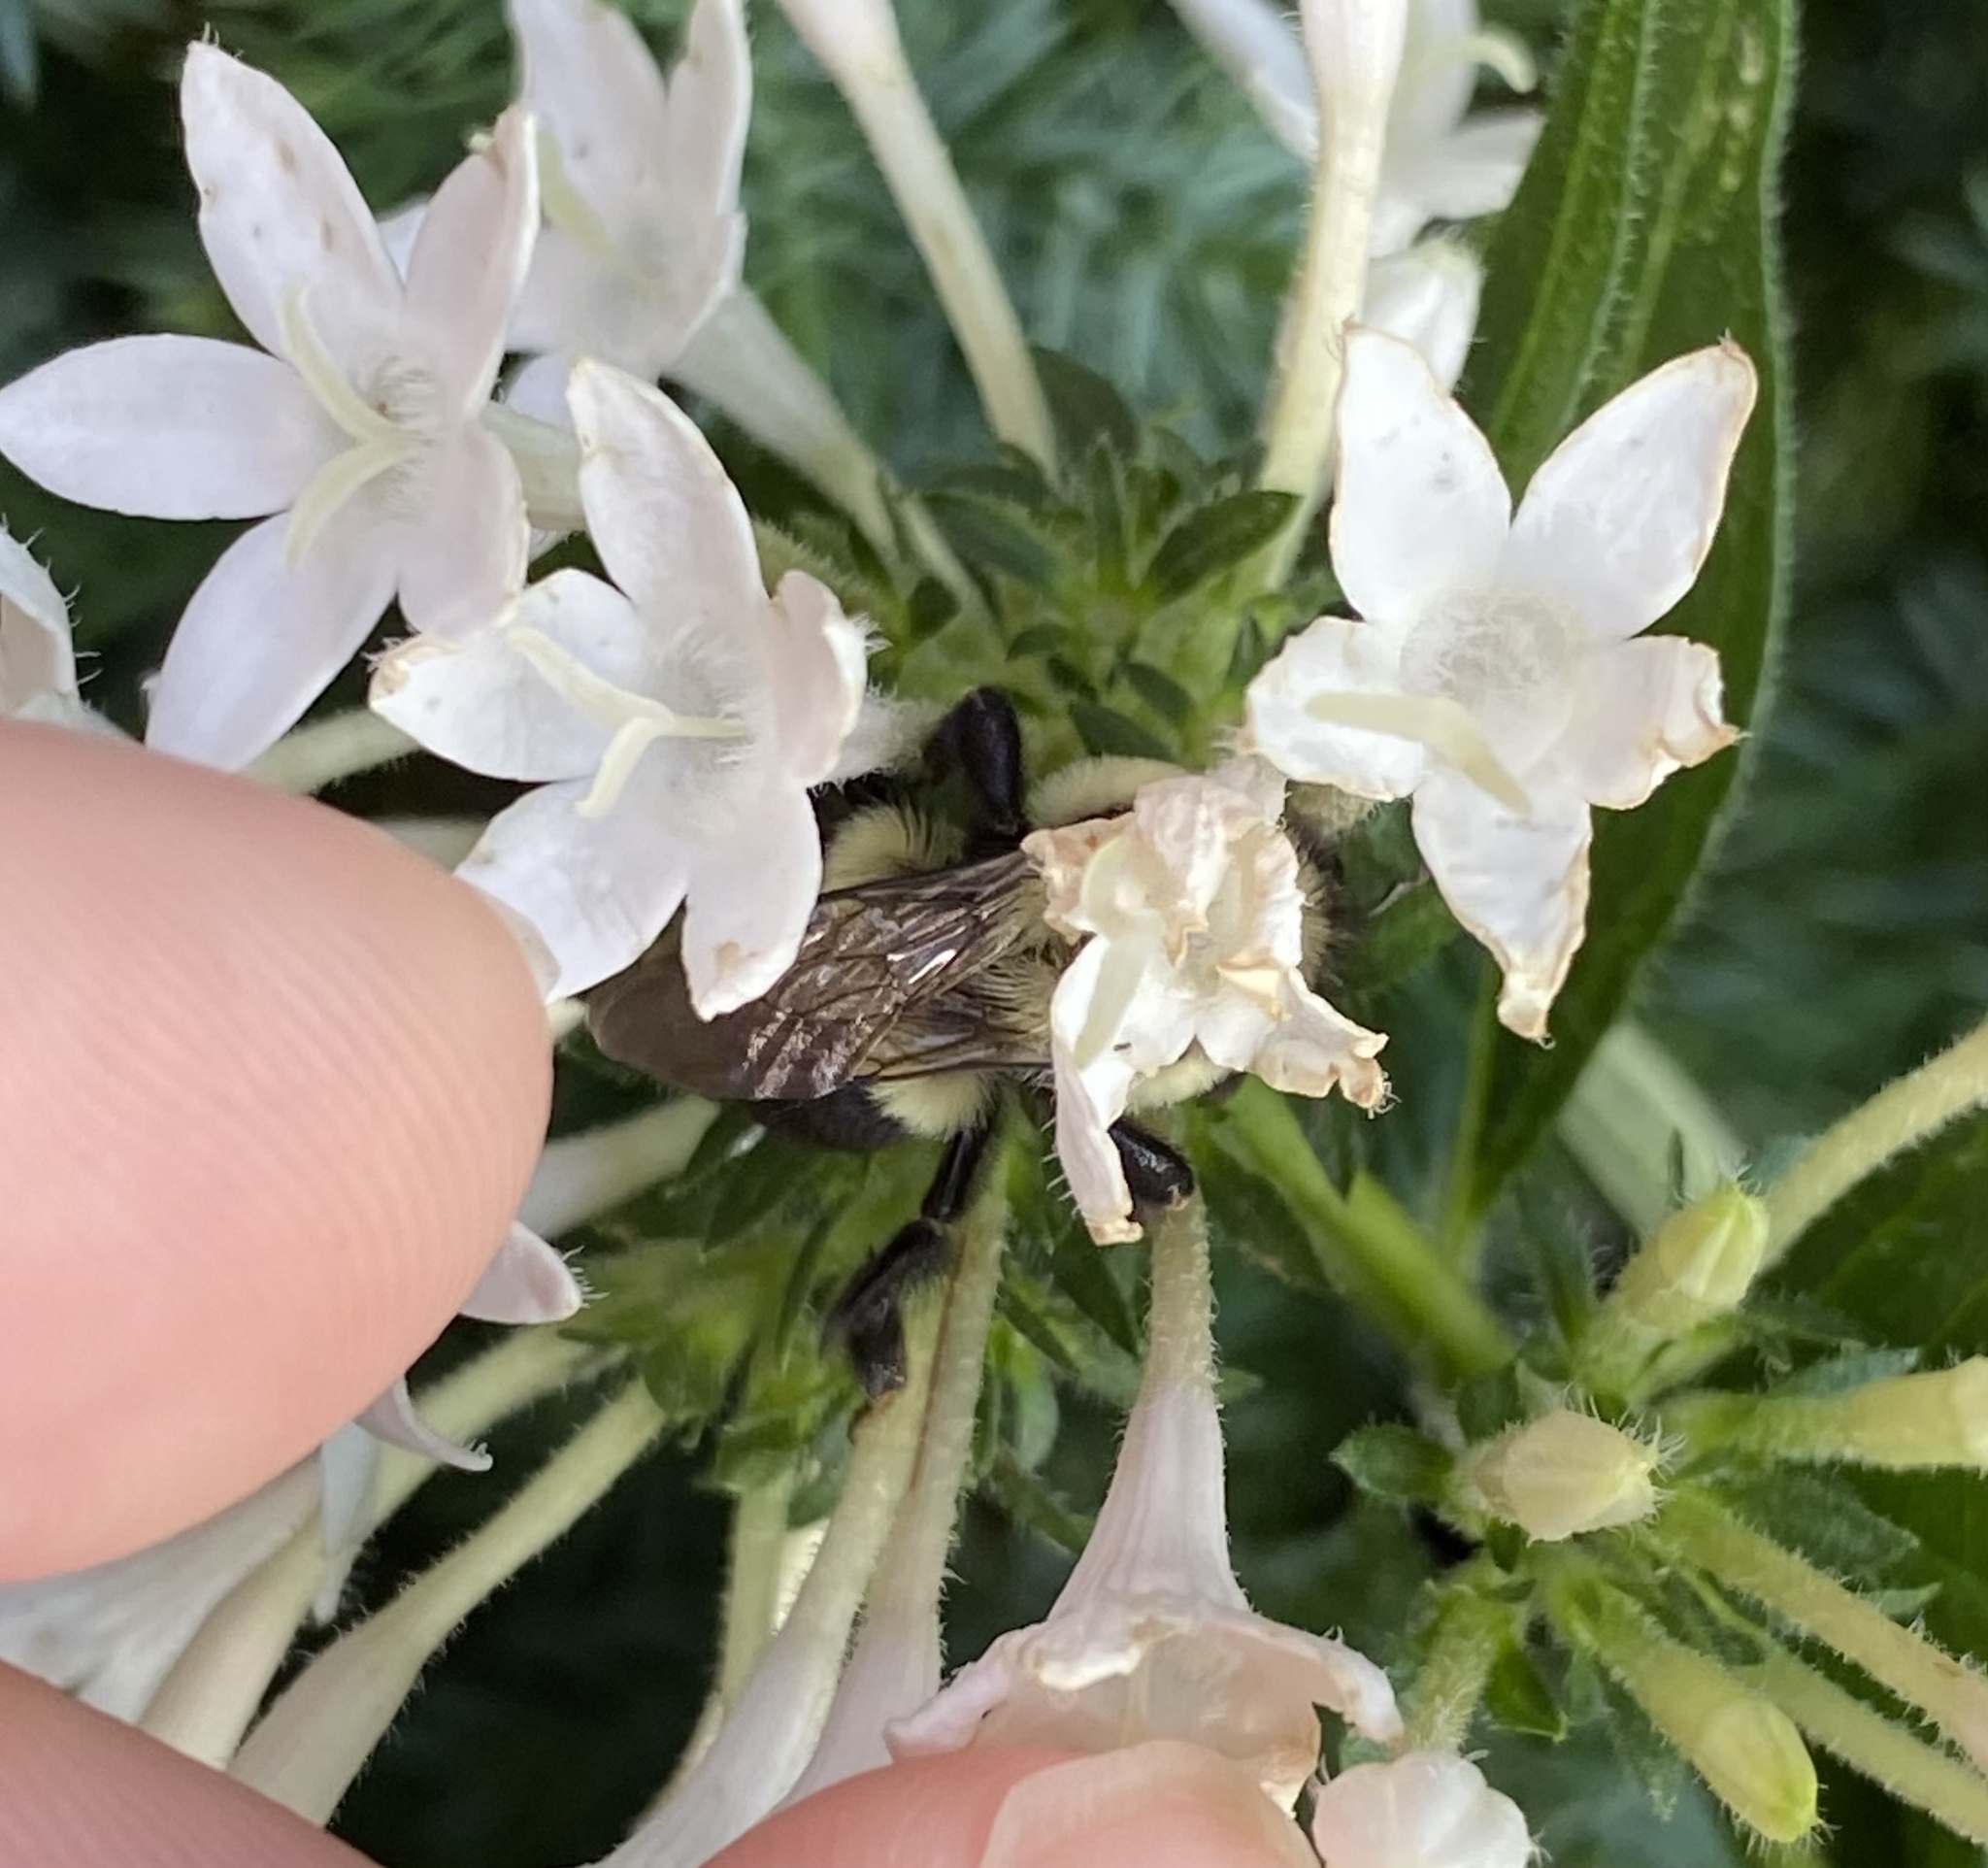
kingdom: Animalia
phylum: Arthropoda
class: Insecta
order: Hymenoptera
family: Apidae
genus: Bombus
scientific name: Bombus impatiens
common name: Common eastern bumble bee
